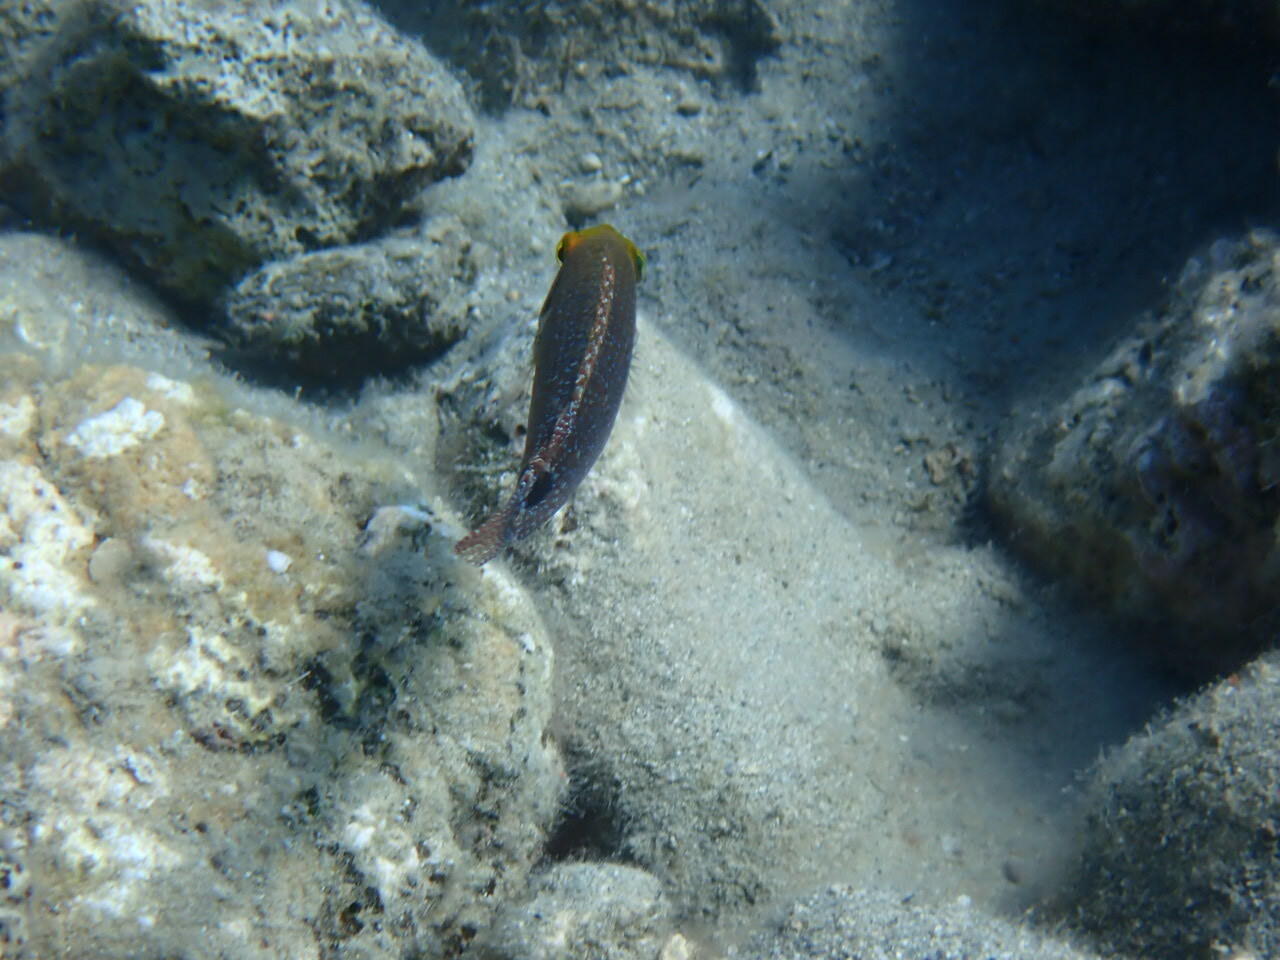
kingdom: Animalia
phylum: Chordata
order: Perciformes
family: Labridae
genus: Symphodus
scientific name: Symphodus mediterraneus
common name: Axillary wrasse
